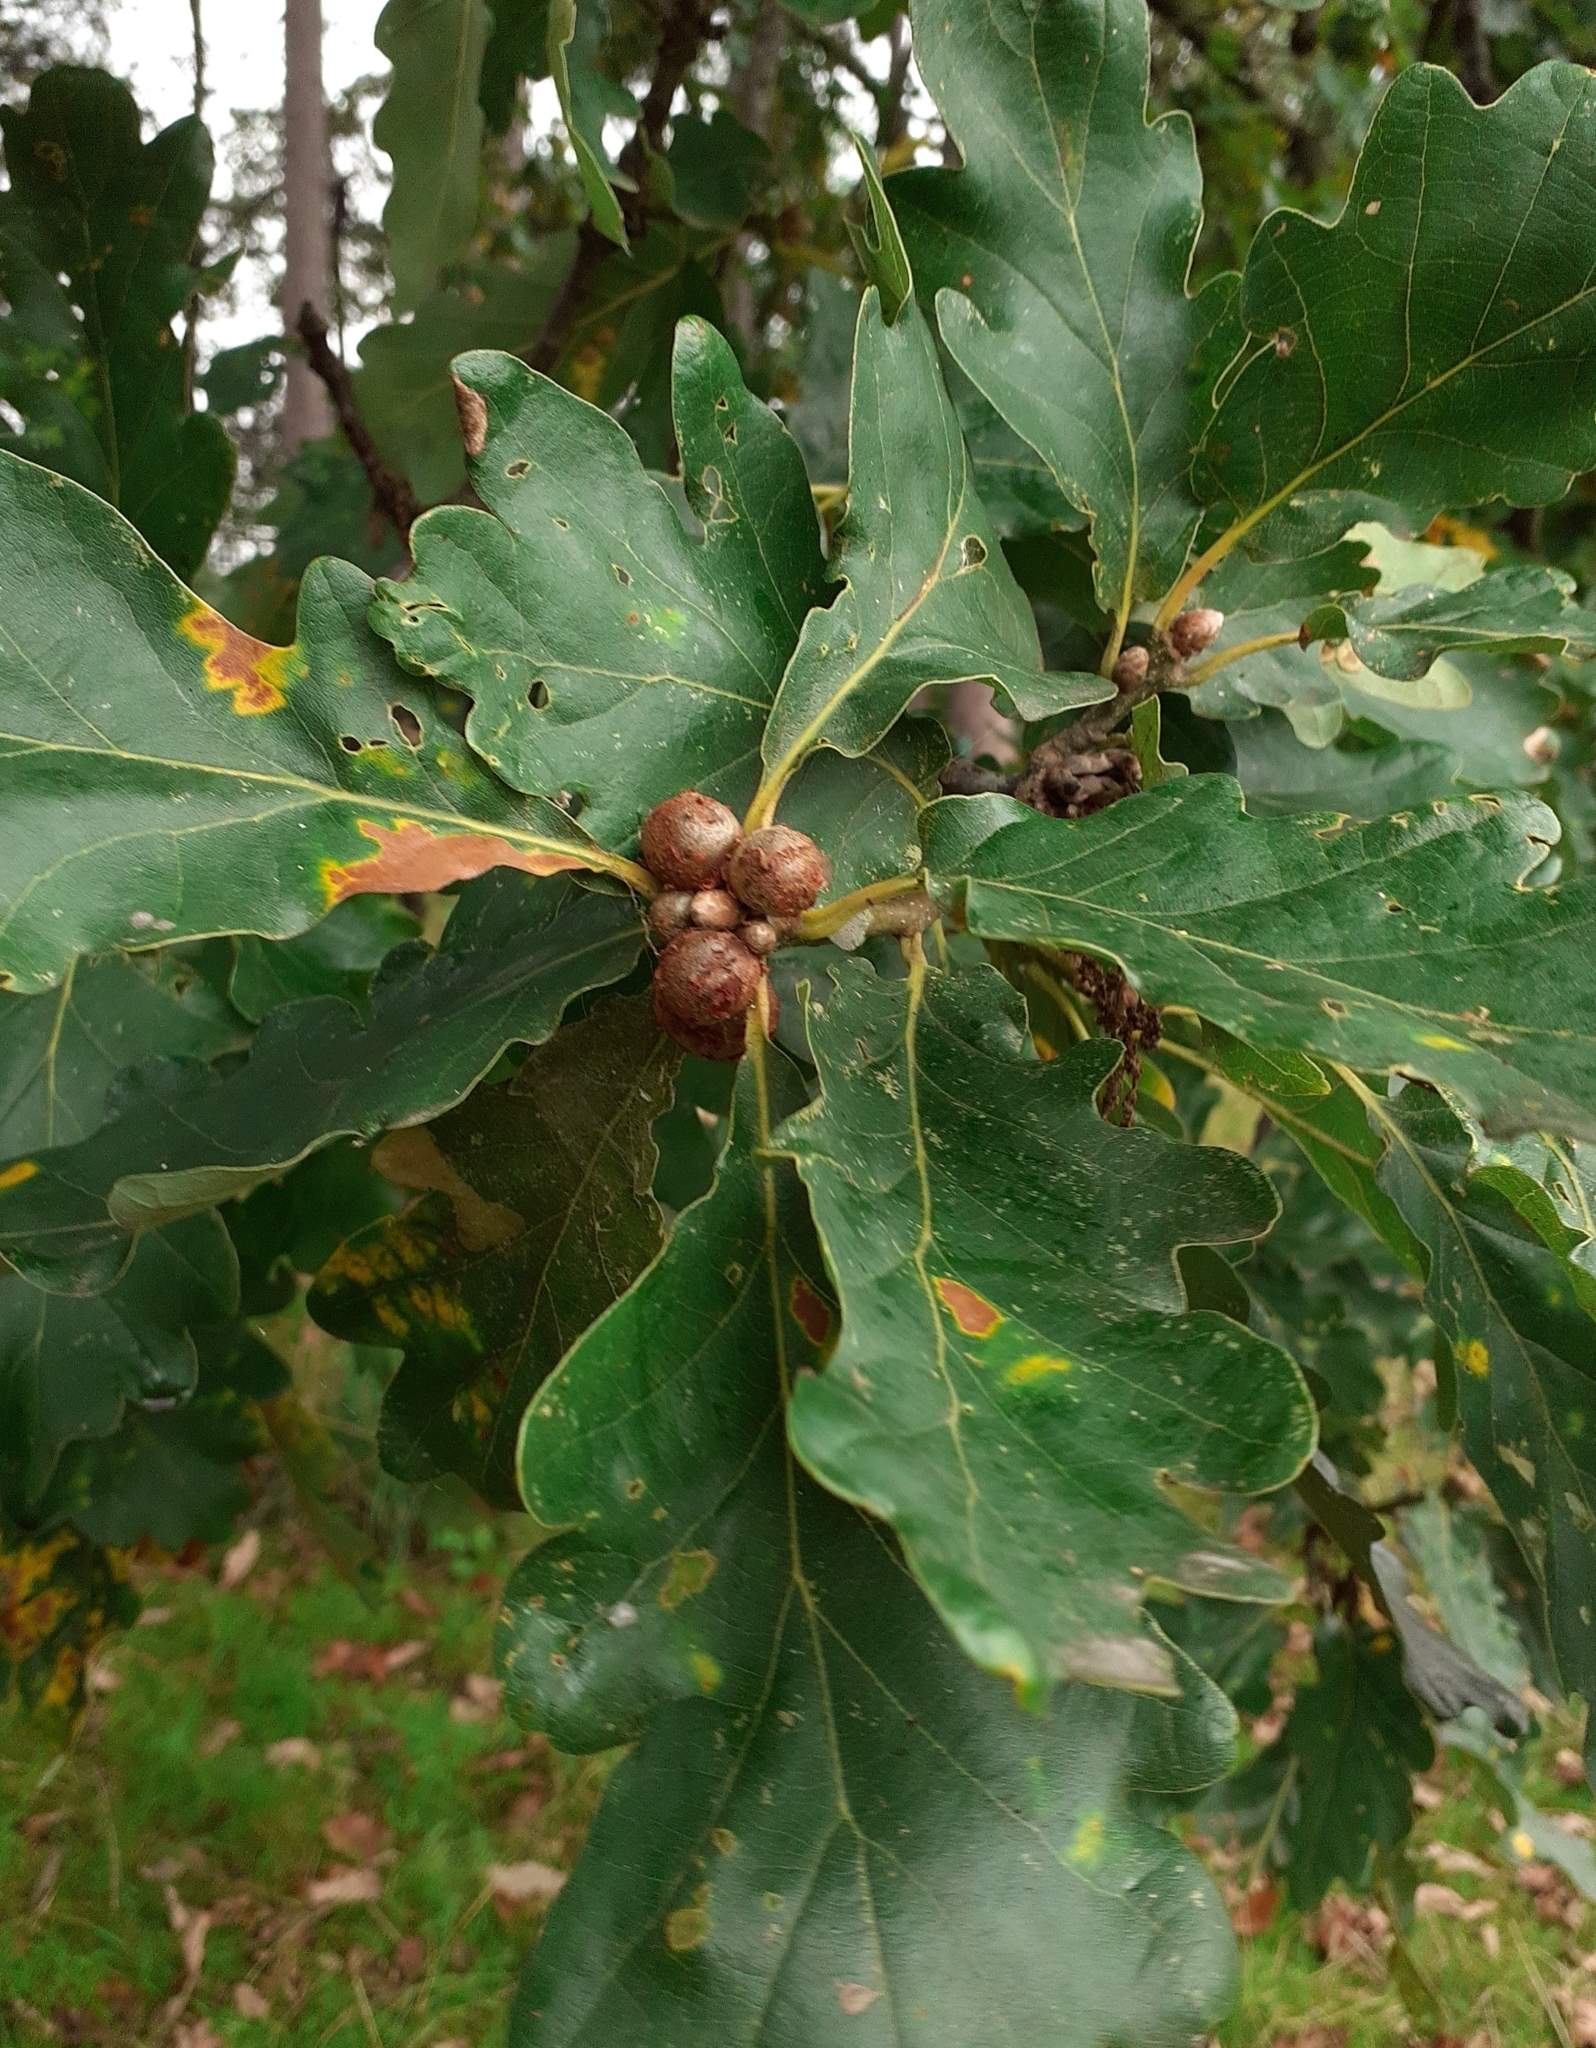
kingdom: Animalia
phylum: Arthropoda
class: Insecta
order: Hymenoptera
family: Cynipidae
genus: Andricus
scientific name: Andricus lignicolus
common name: Cola-nut gall
